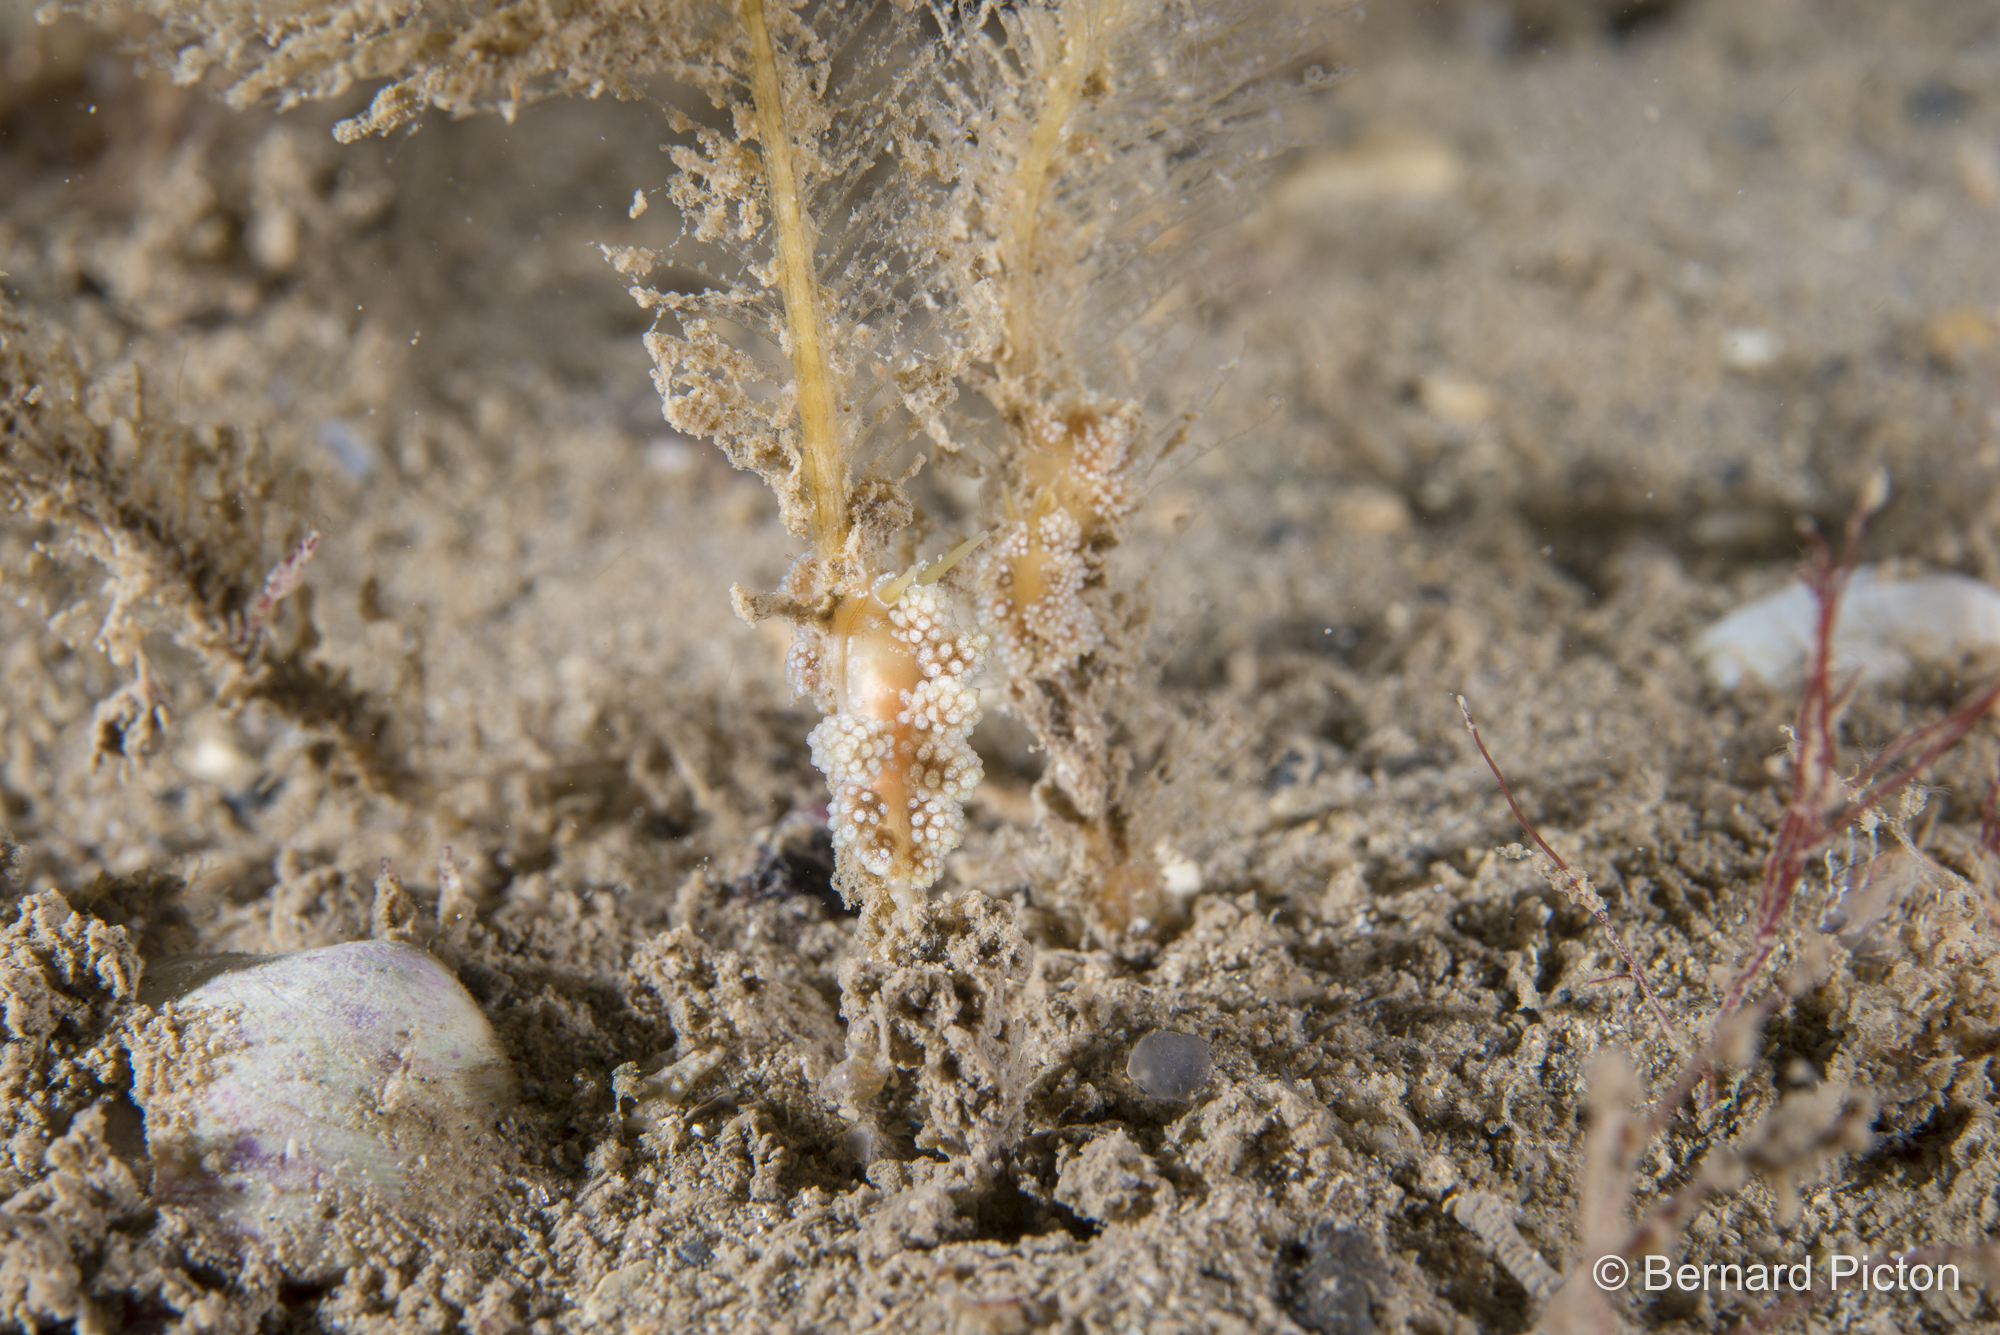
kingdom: Animalia
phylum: Mollusca
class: Gastropoda
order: Nudibranchia
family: Dotidae
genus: Doto
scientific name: Doto fragilis
